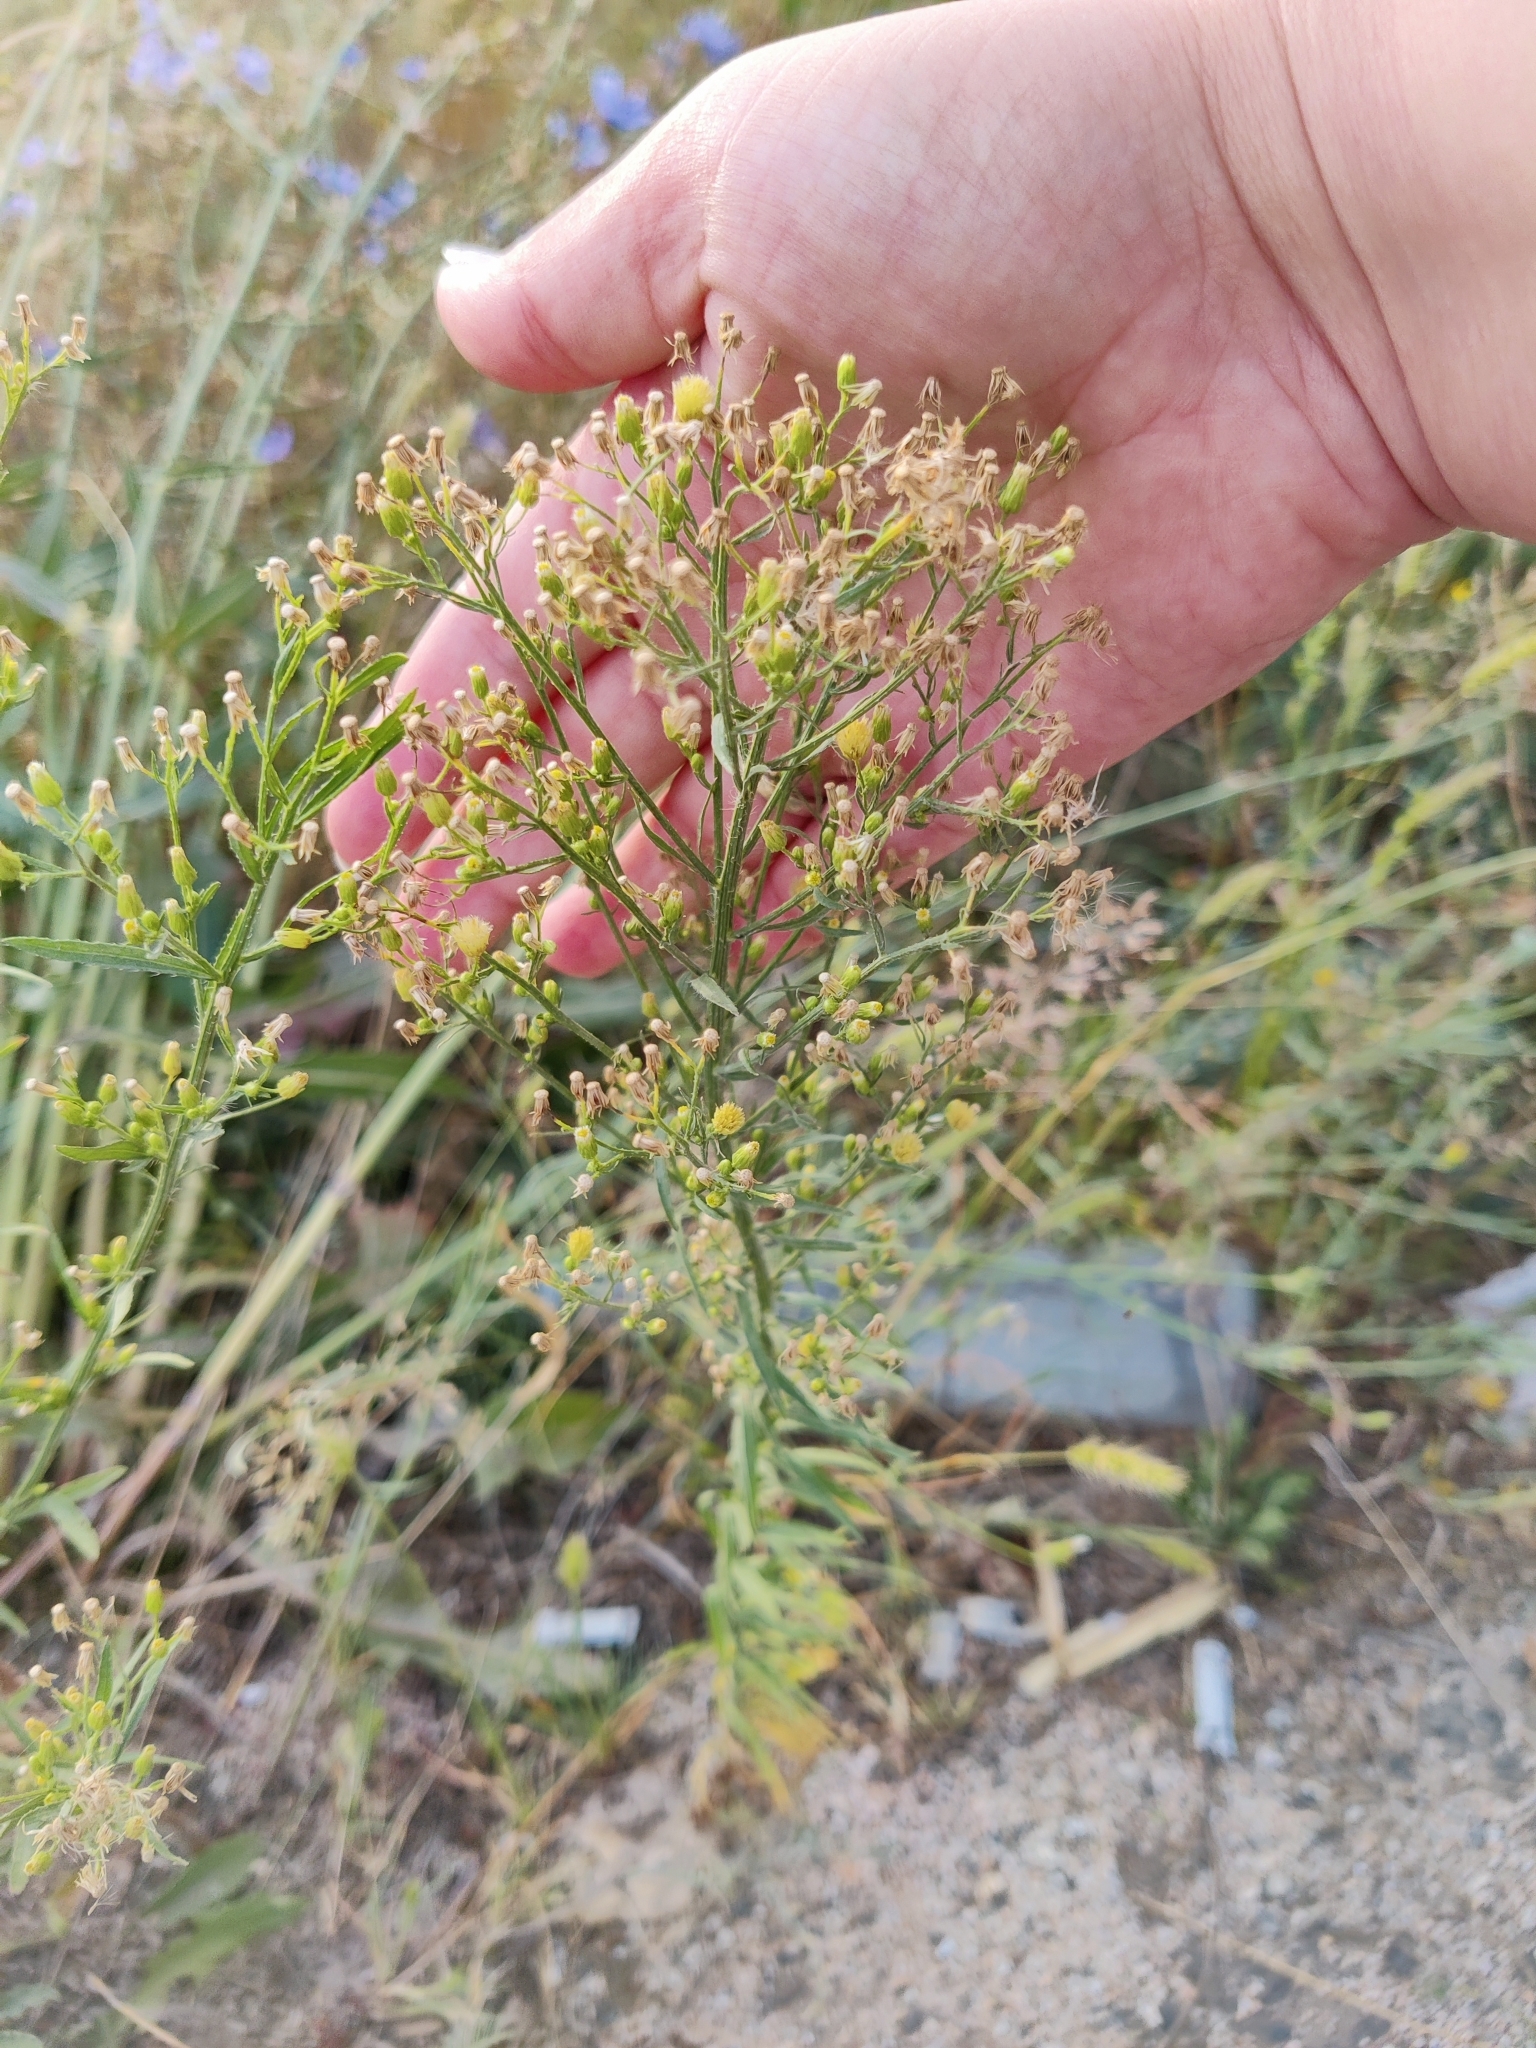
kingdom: Plantae
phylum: Tracheophyta
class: Magnoliopsida
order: Asterales
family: Asteraceae
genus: Erigeron
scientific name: Erigeron canadensis
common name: Canadian fleabane
